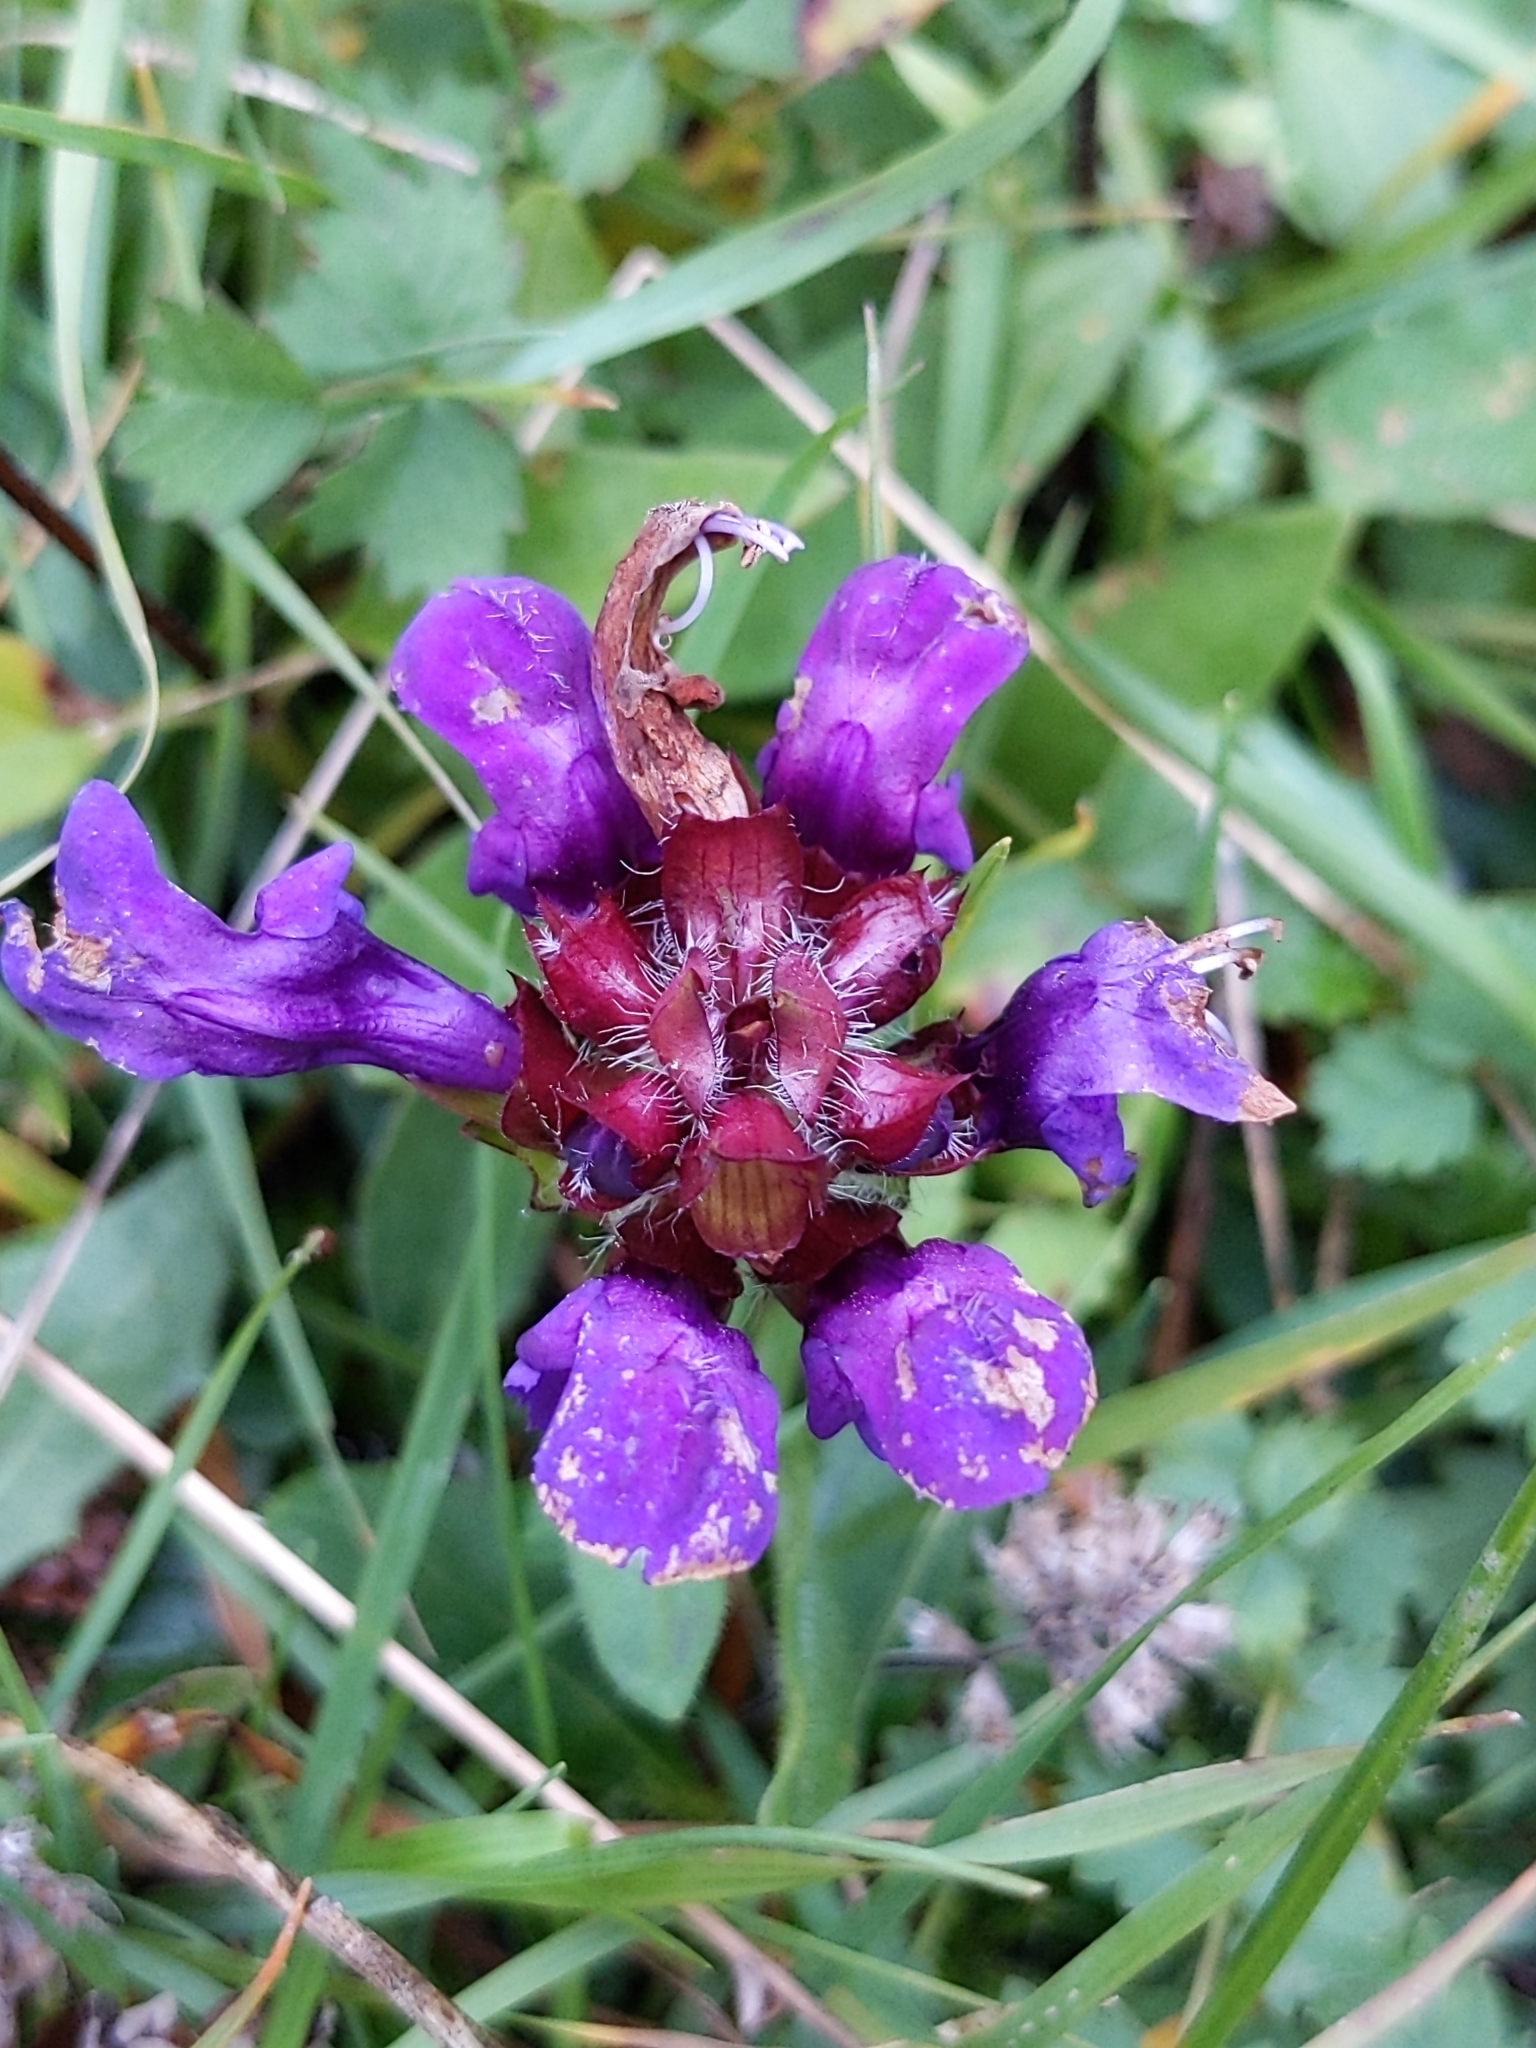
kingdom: Plantae
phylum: Tracheophyta
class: Magnoliopsida
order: Lamiales
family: Lamiaceae
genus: Prunella
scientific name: Prunella grandiflora
